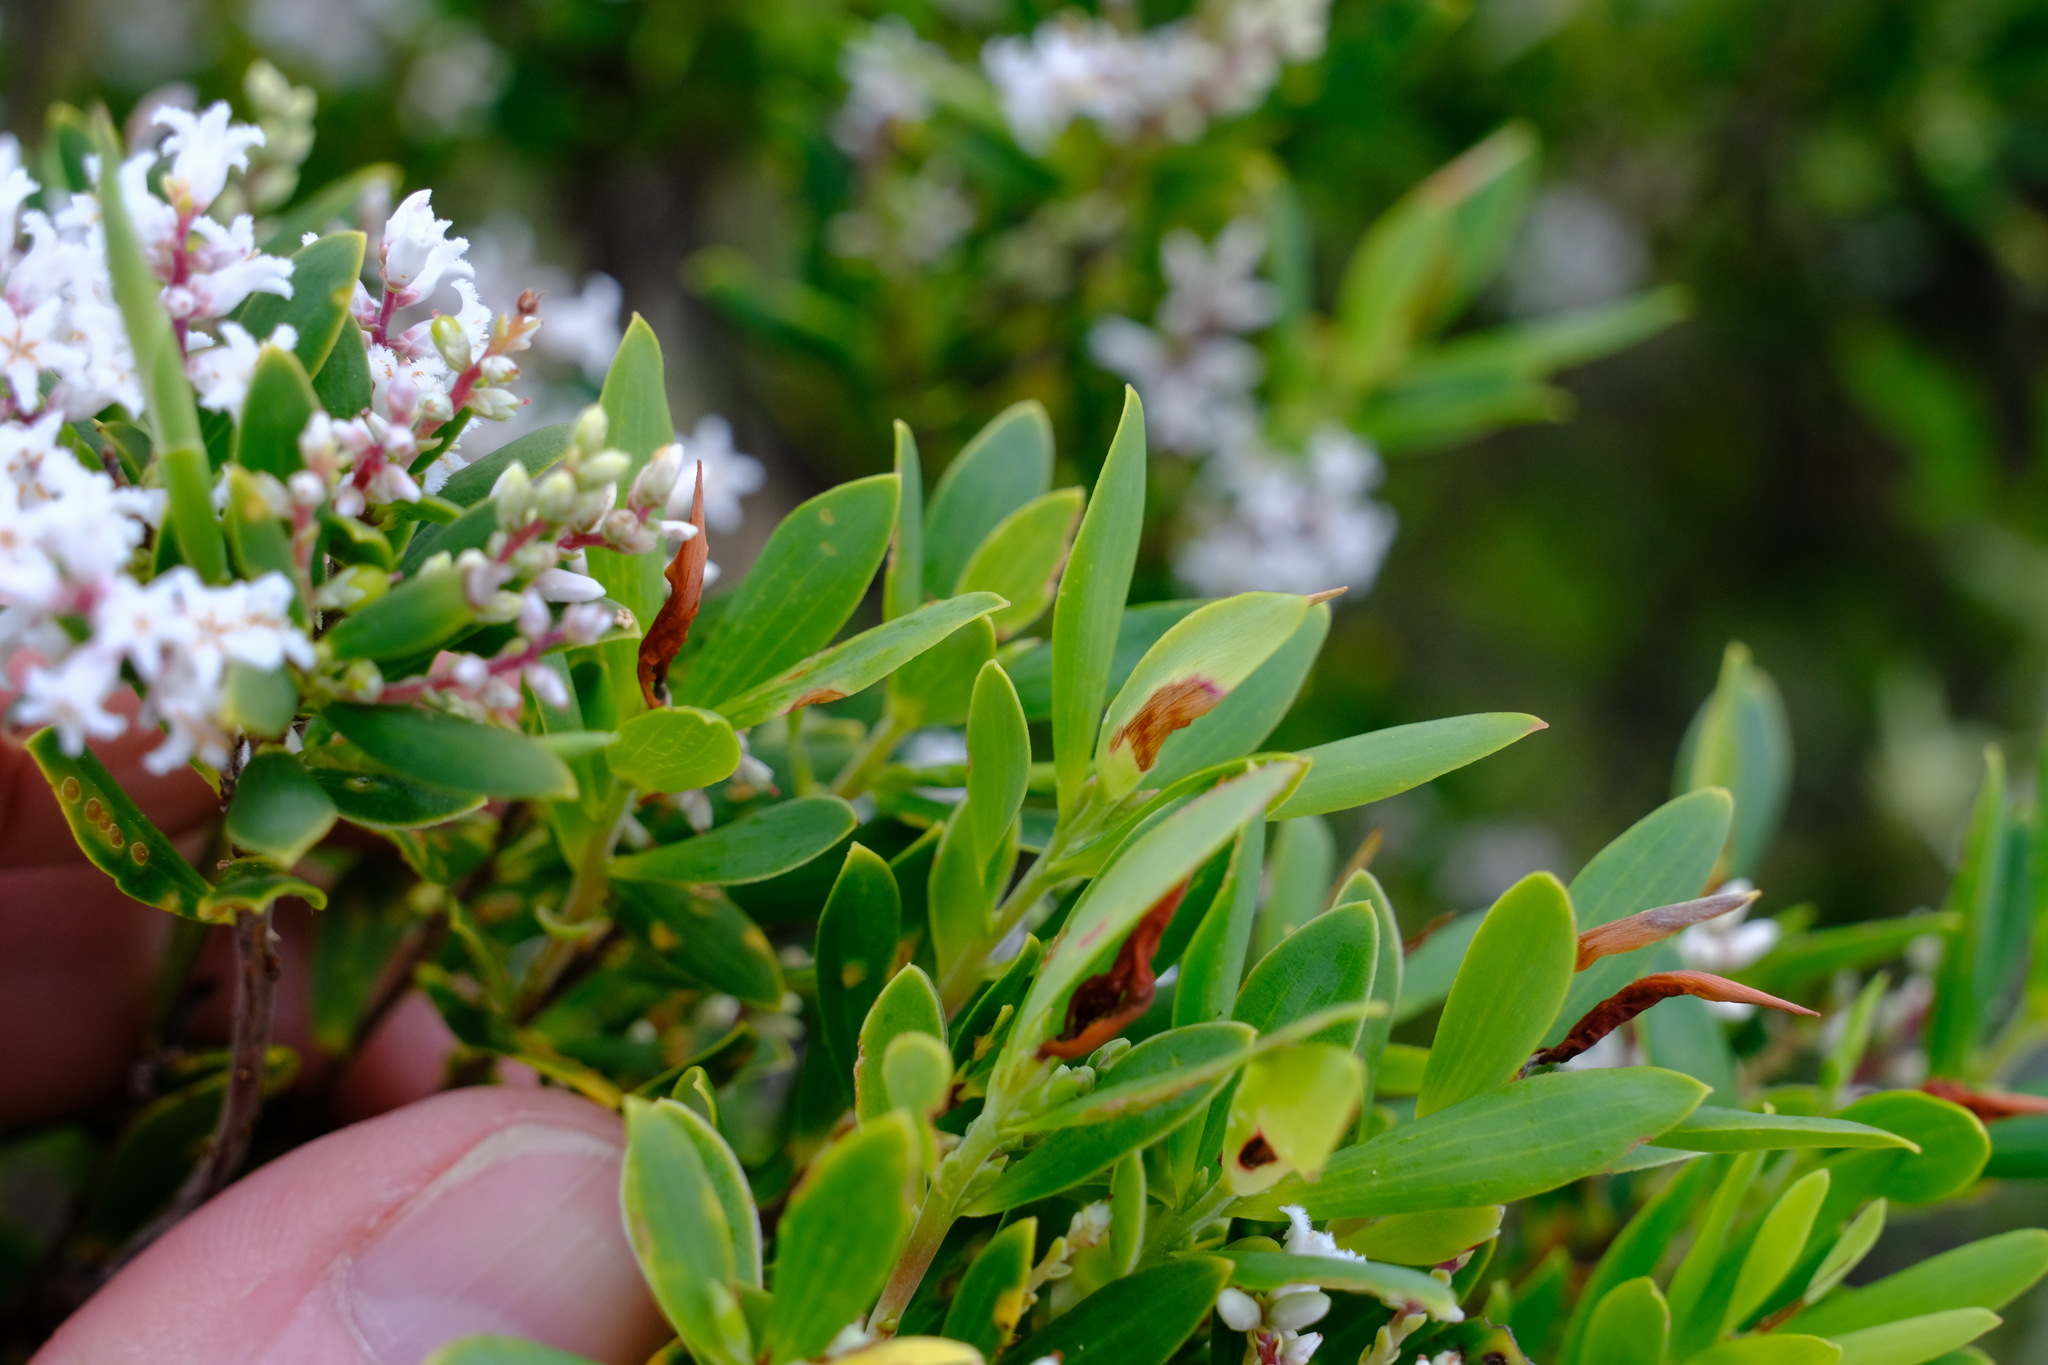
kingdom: Plantae
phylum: Tracheophyta
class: Magnoliopsida
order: Ericales
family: Ericaceae
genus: Leptecophylla
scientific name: Leptecophylla parvifolia
